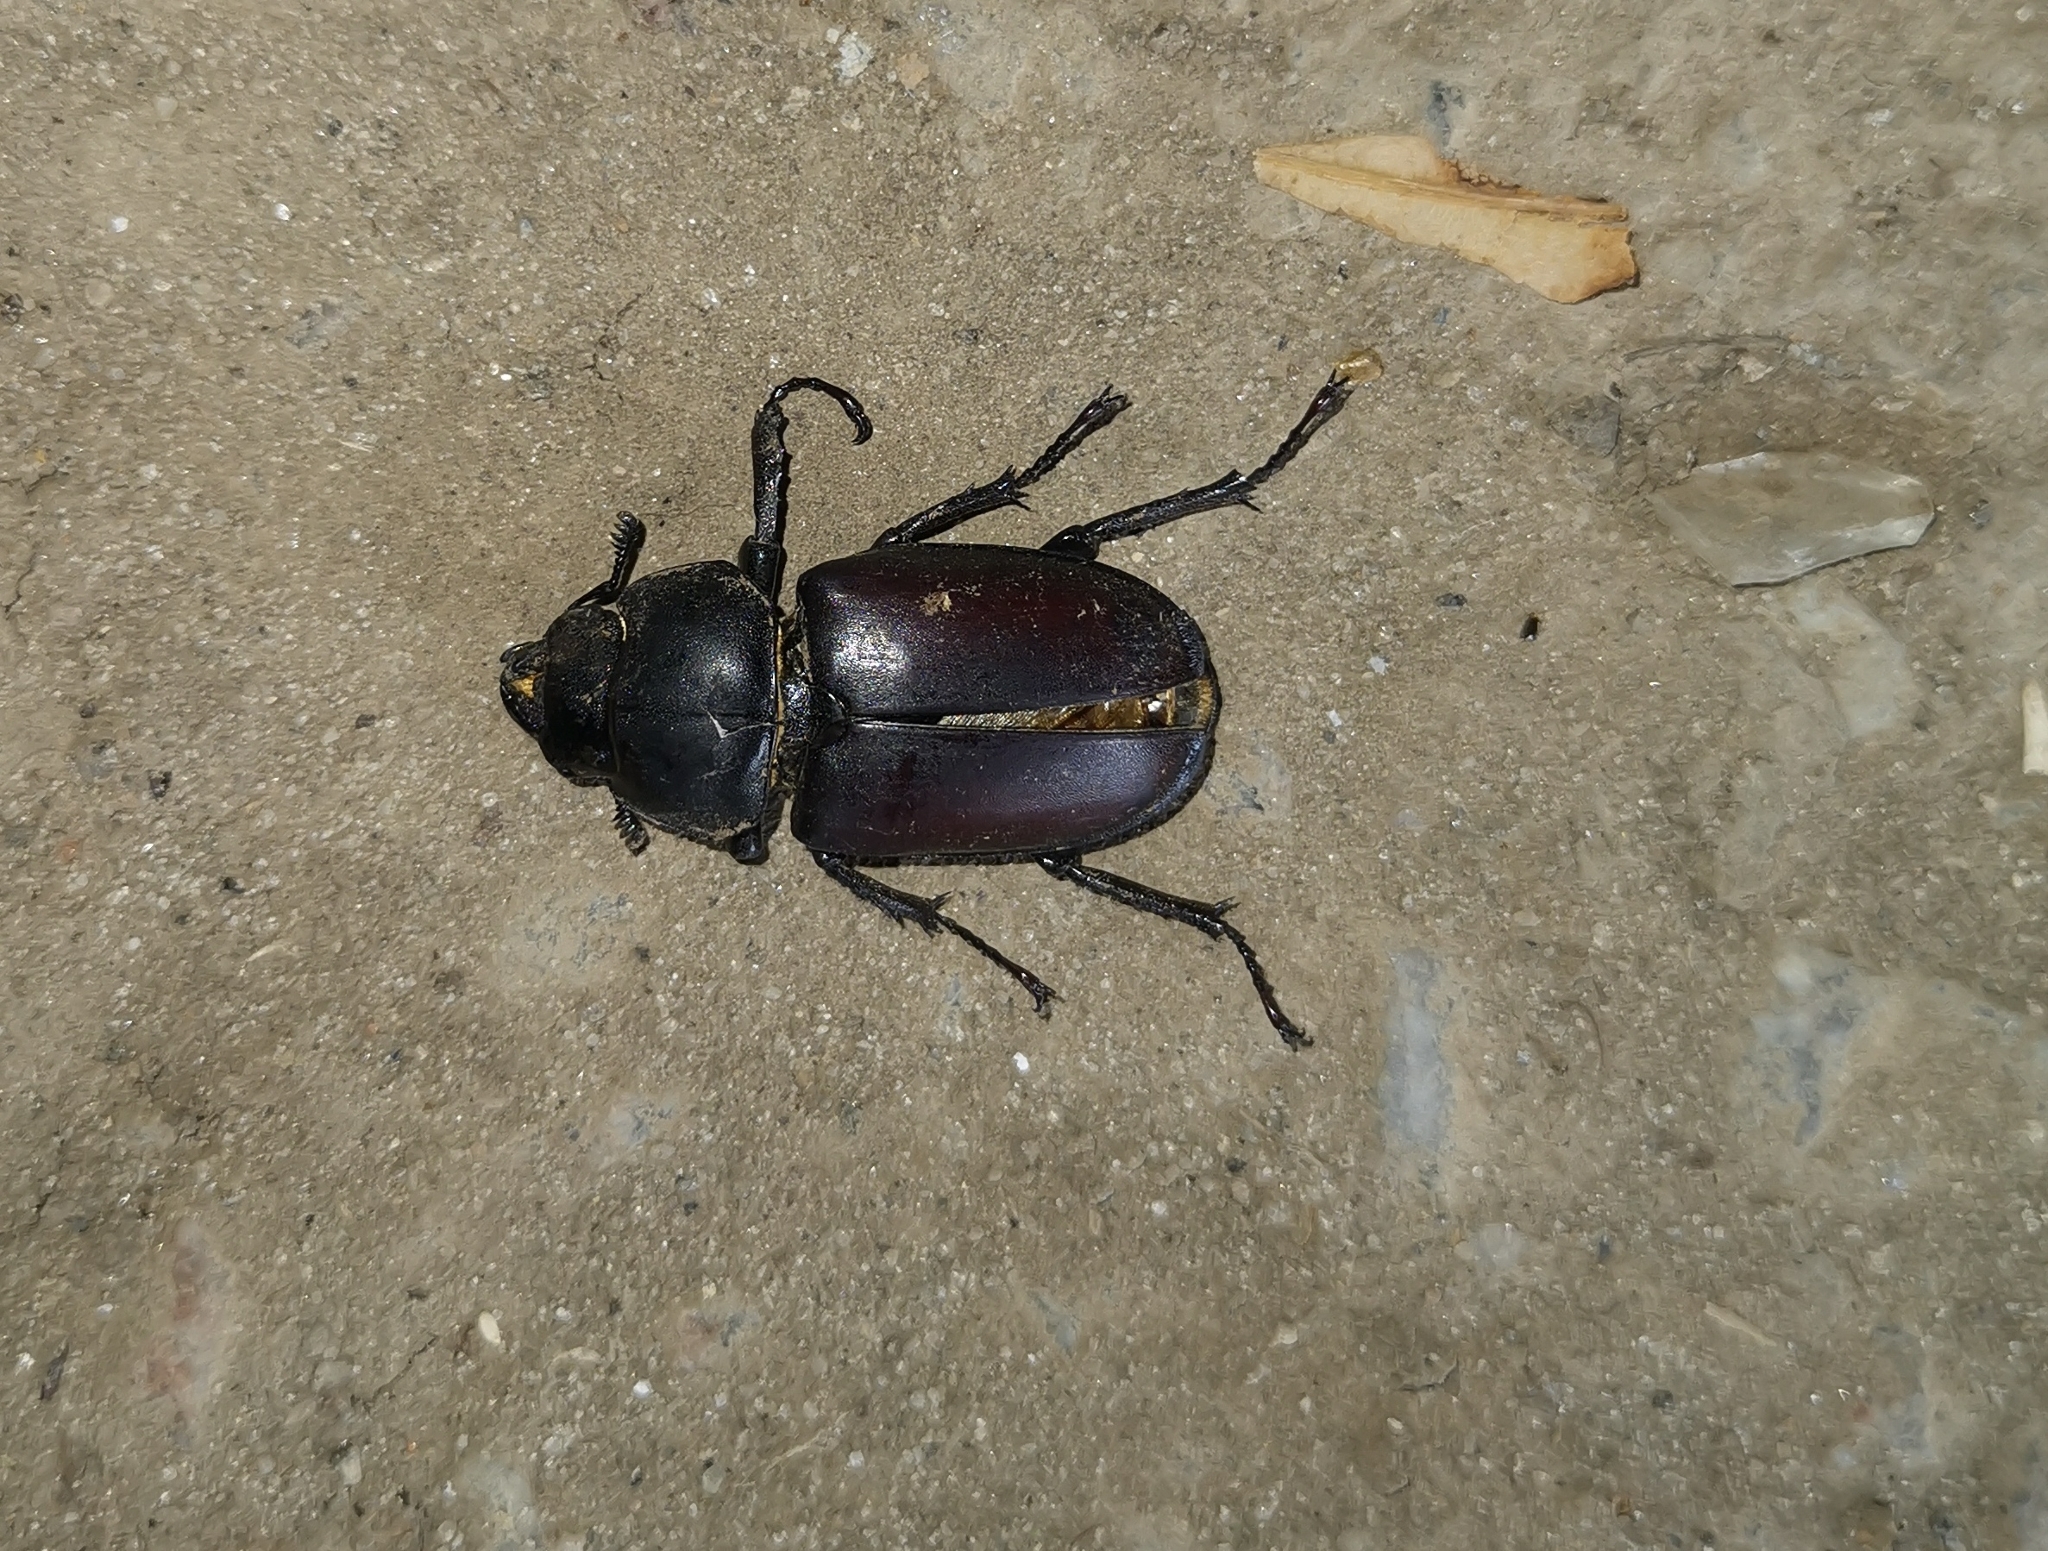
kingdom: Animalia
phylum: Arthropoda
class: Insecta
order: Coleoptera
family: Lucanidae
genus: Lucanus
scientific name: Lucanus cervus
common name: Stag beetle
